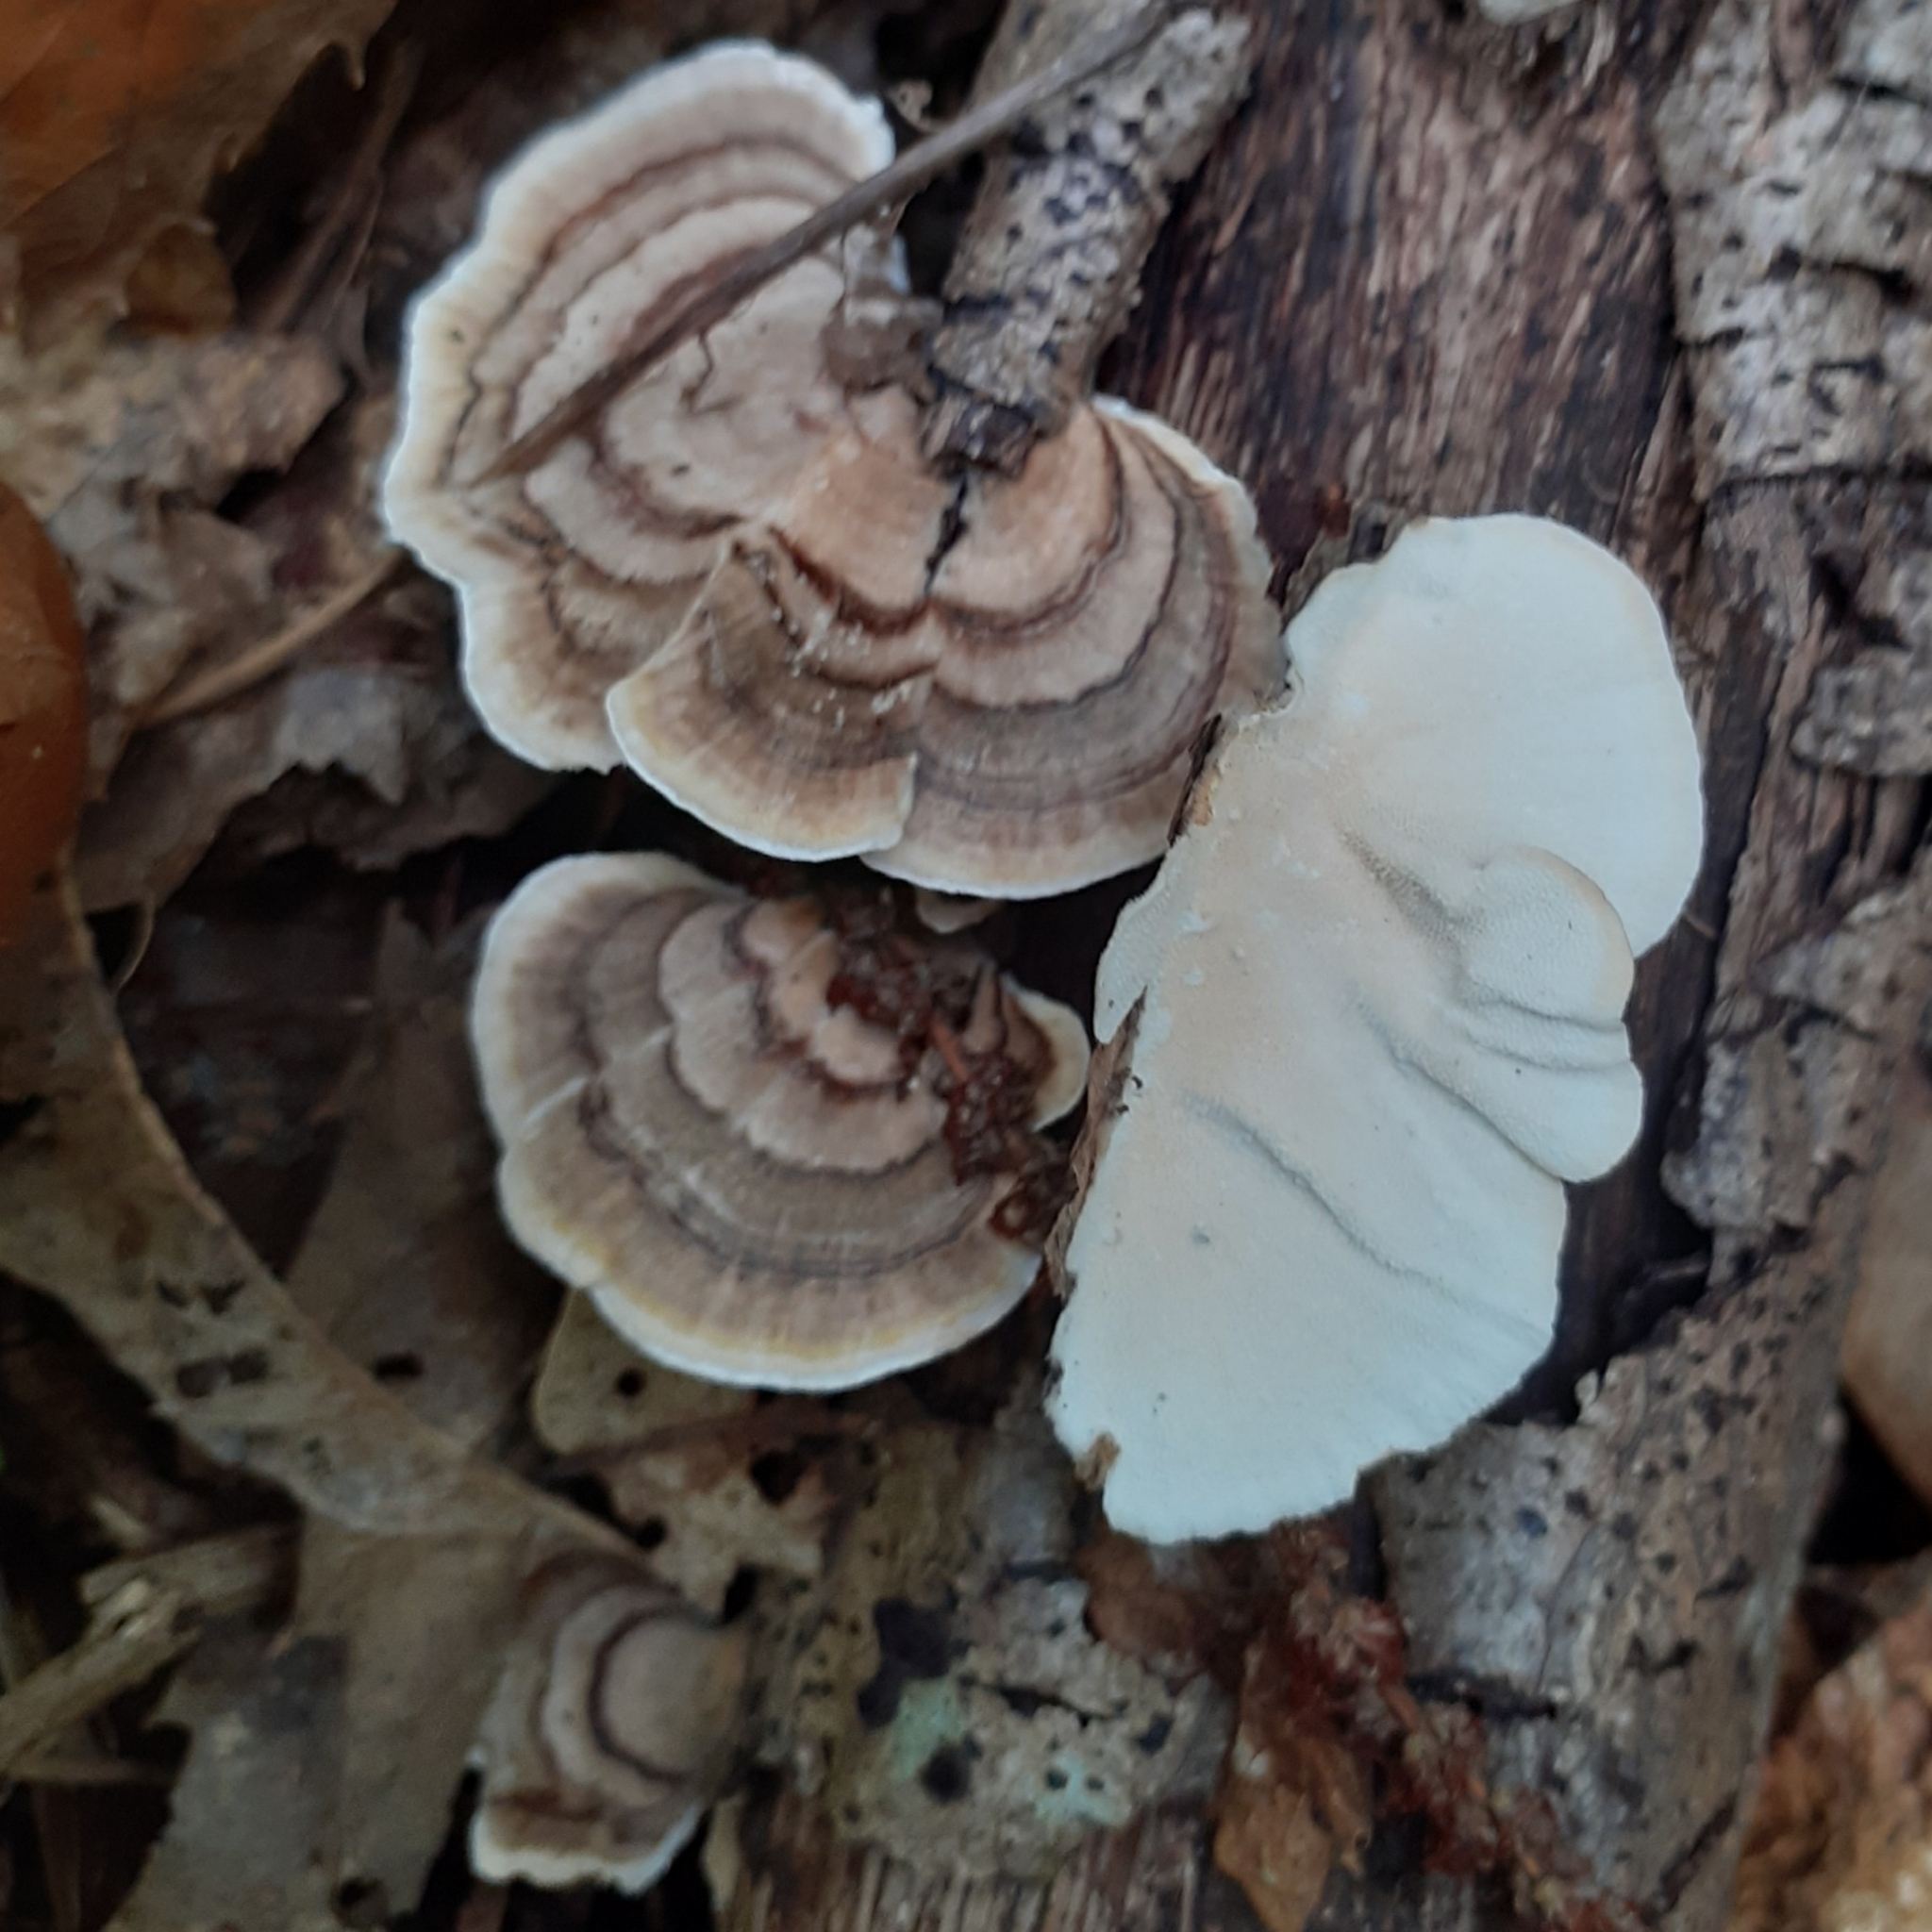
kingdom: Fungi
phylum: Basidiomycota
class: Agaricomycetes
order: Polyporales
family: Polyporaceae
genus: Trametes
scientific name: Trametes versicolor
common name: Turkeytail
